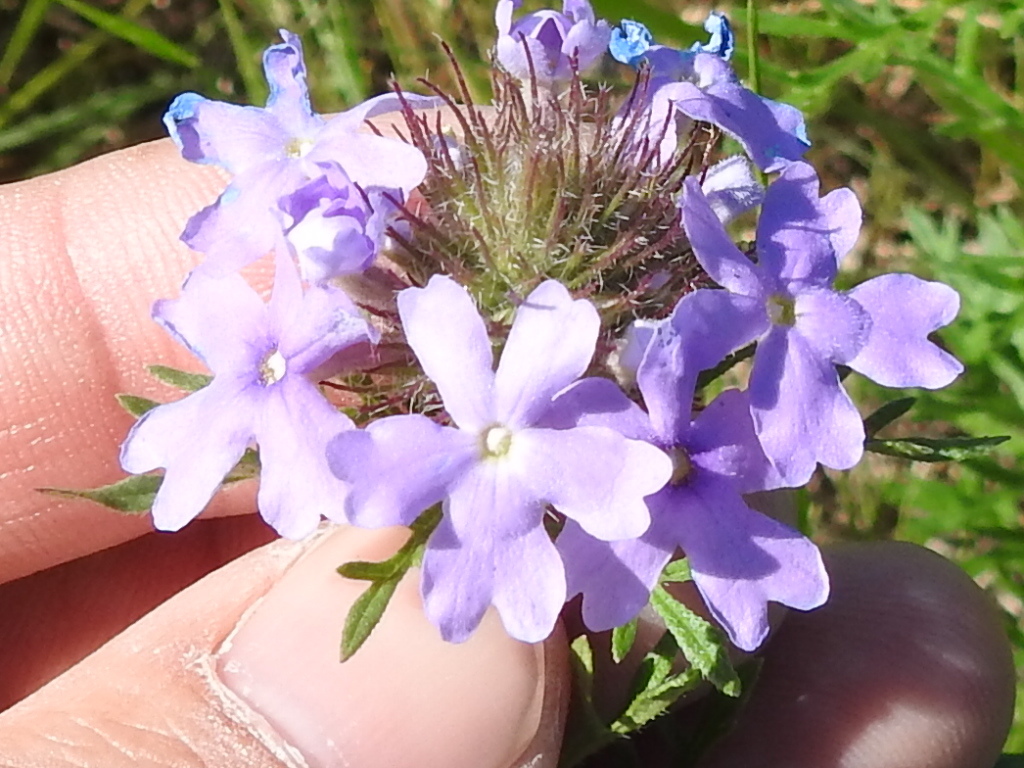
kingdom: Plantae
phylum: Tracheophyta
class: Magnoliopsida
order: Lamiales
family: Verbenaceae
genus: Verbena
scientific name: Verbena bipinnatifida
